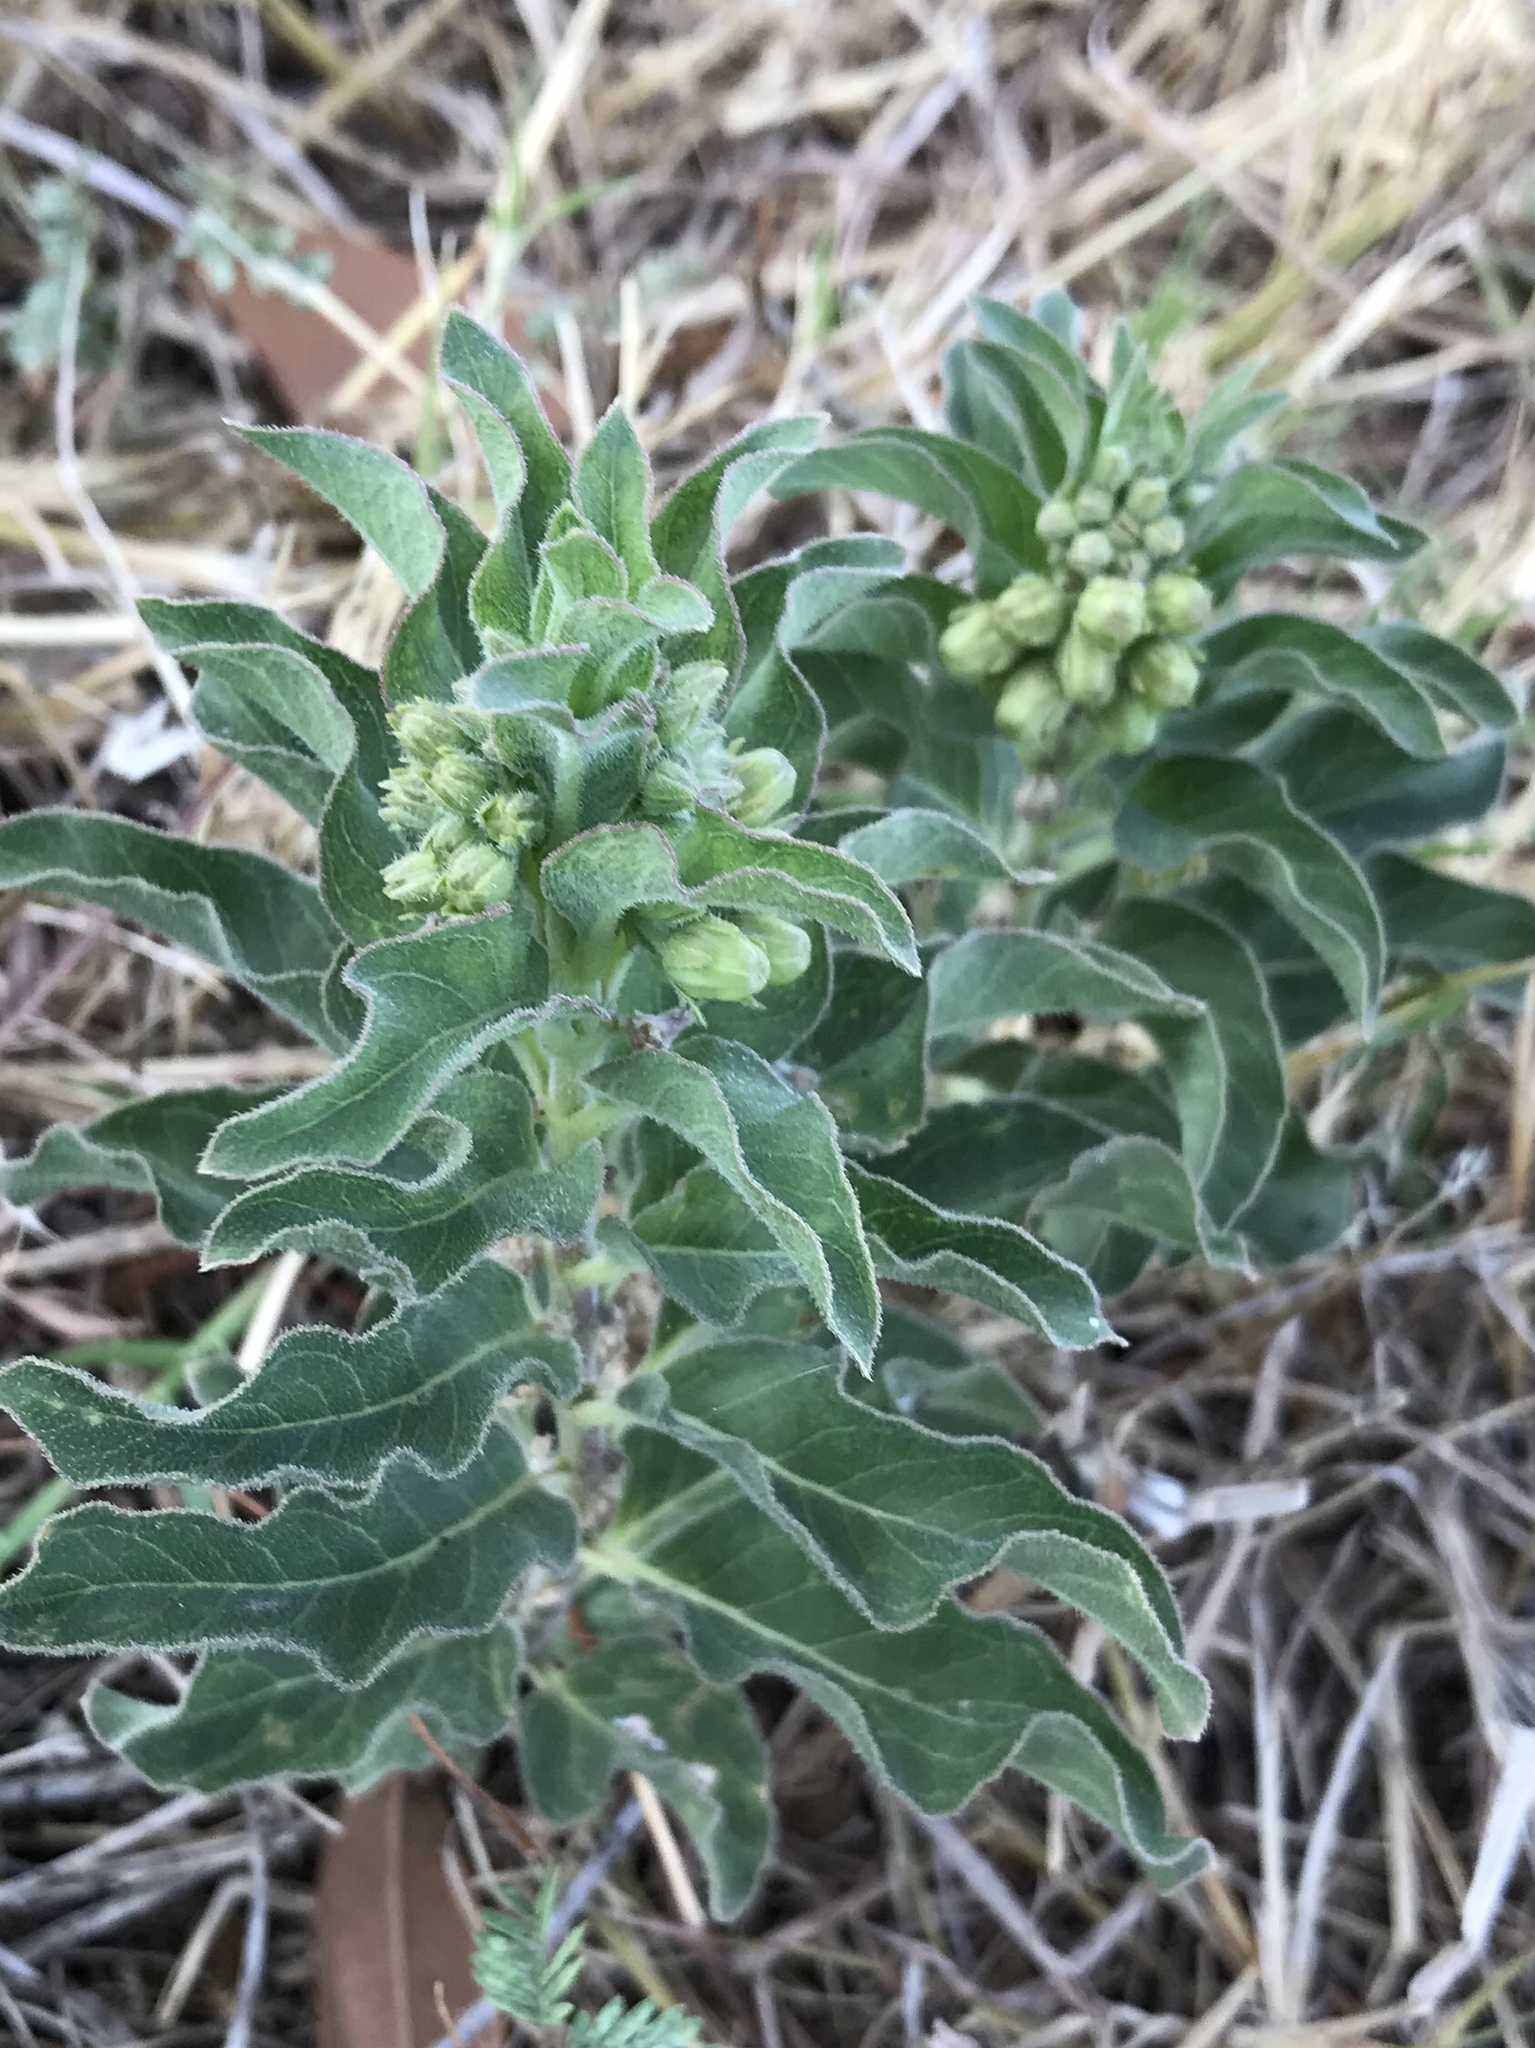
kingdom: Plantae
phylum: Tracheophyta
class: Magnoliopsida
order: Gentianales
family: Apocynaceae
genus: Asclepias
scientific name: Asclepias oenotheroides
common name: Zizotes milkweed
